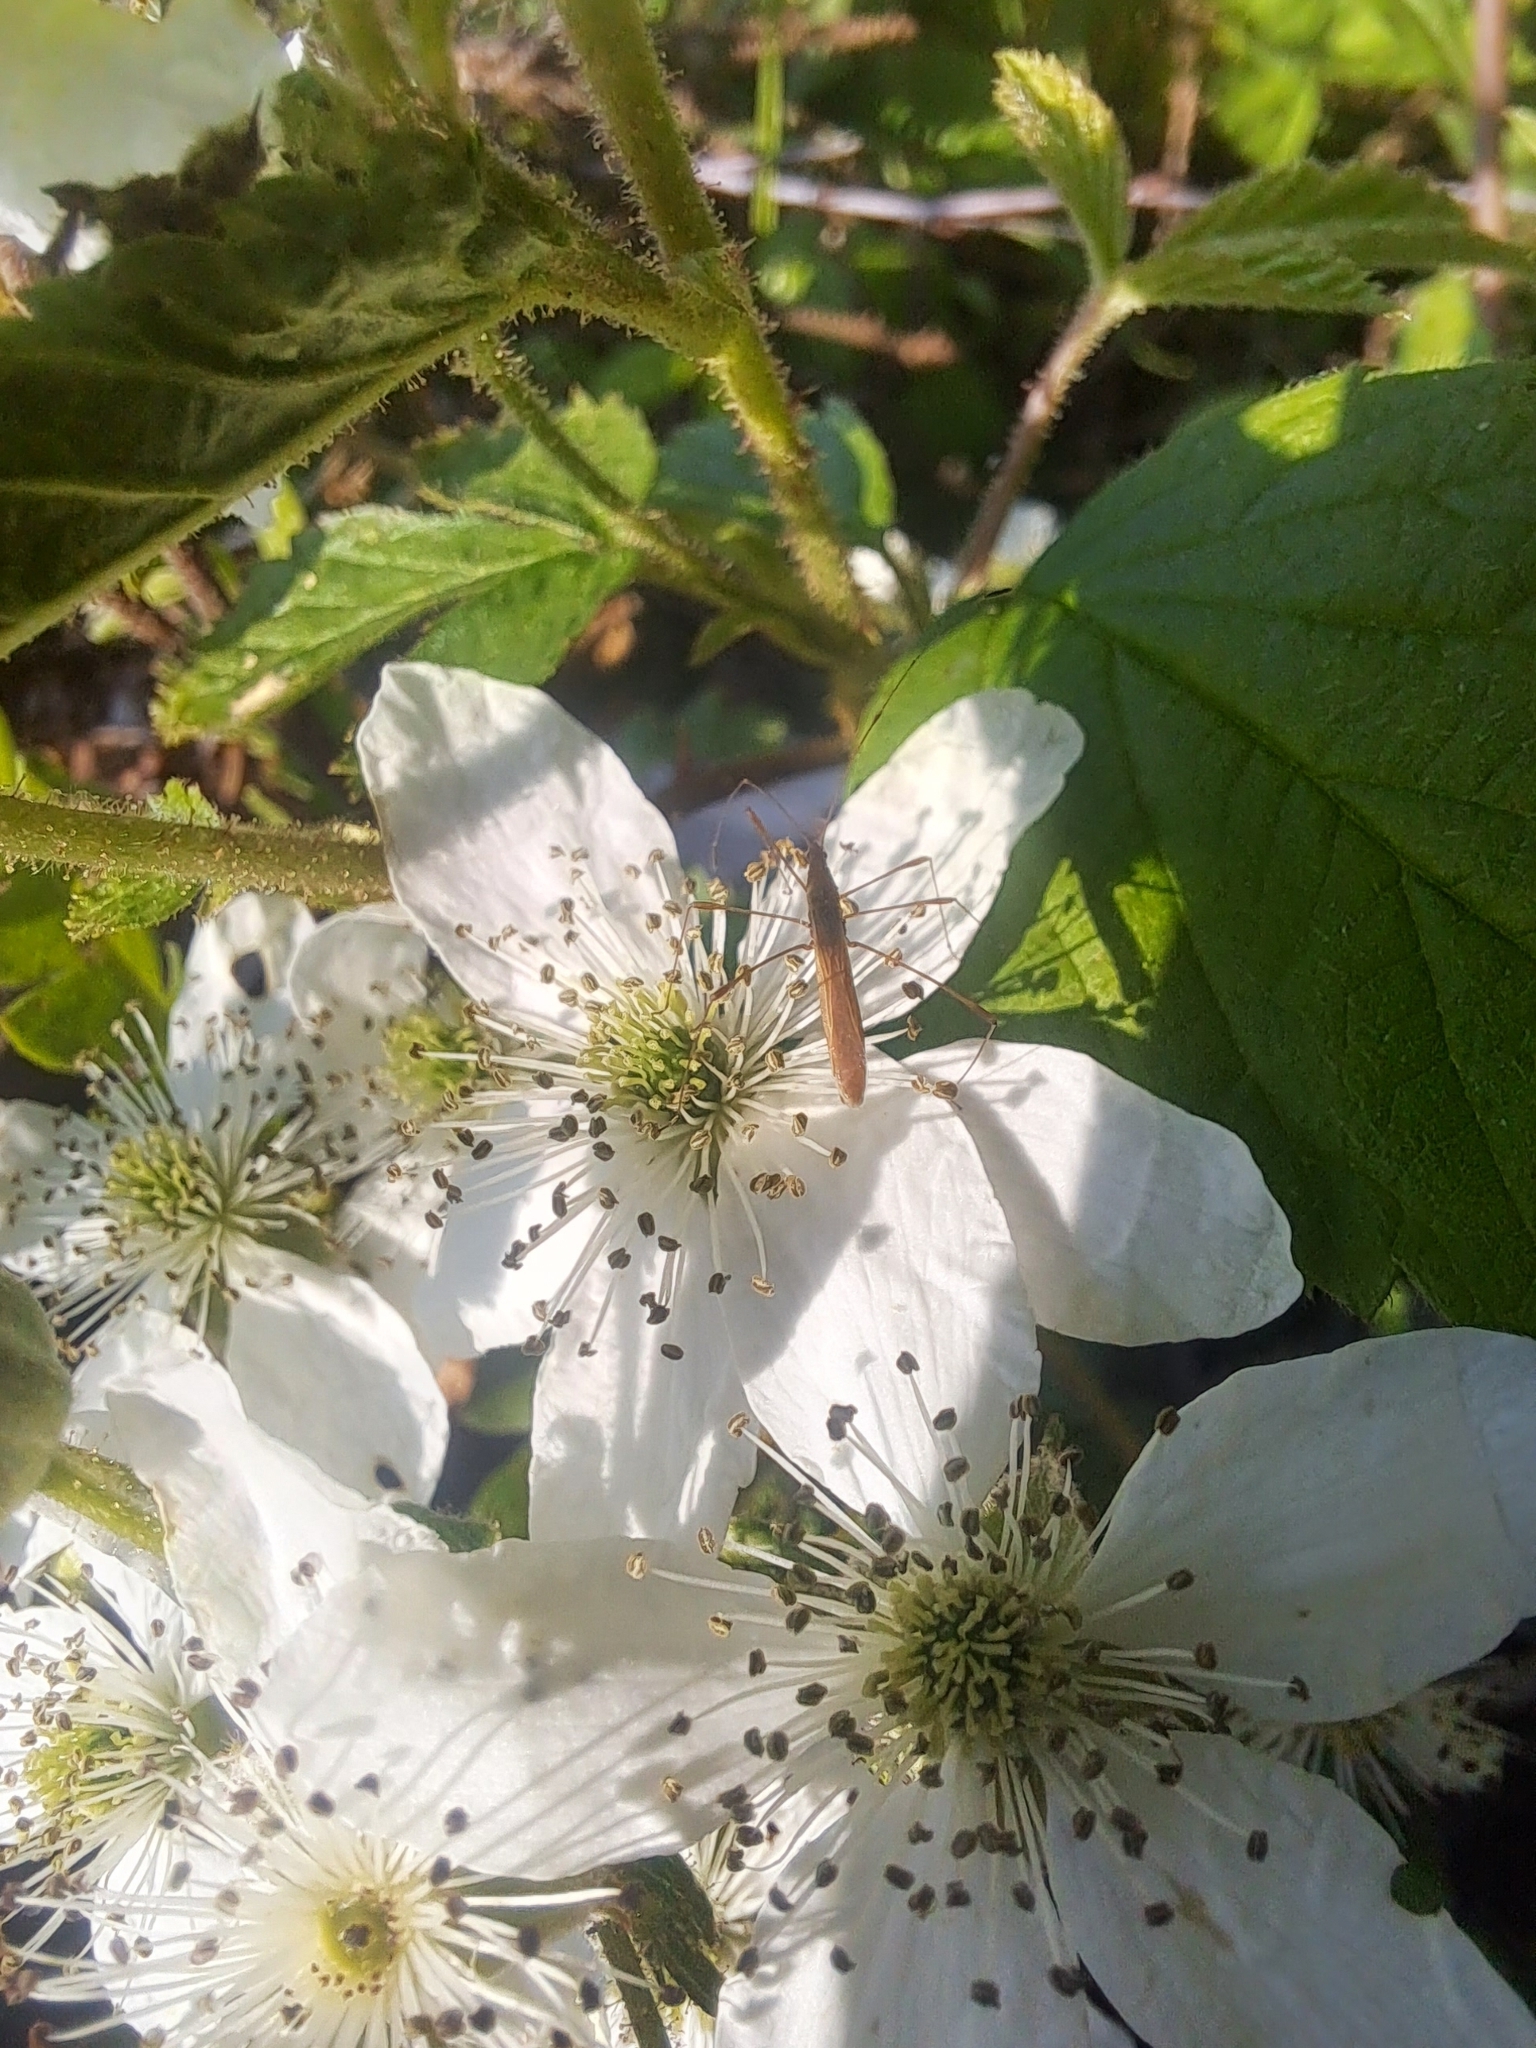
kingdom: Animalia
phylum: Arthropoda
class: Insecta
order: Hemiptera
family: Berytidae
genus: Neoneides
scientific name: Neoneides muticus
